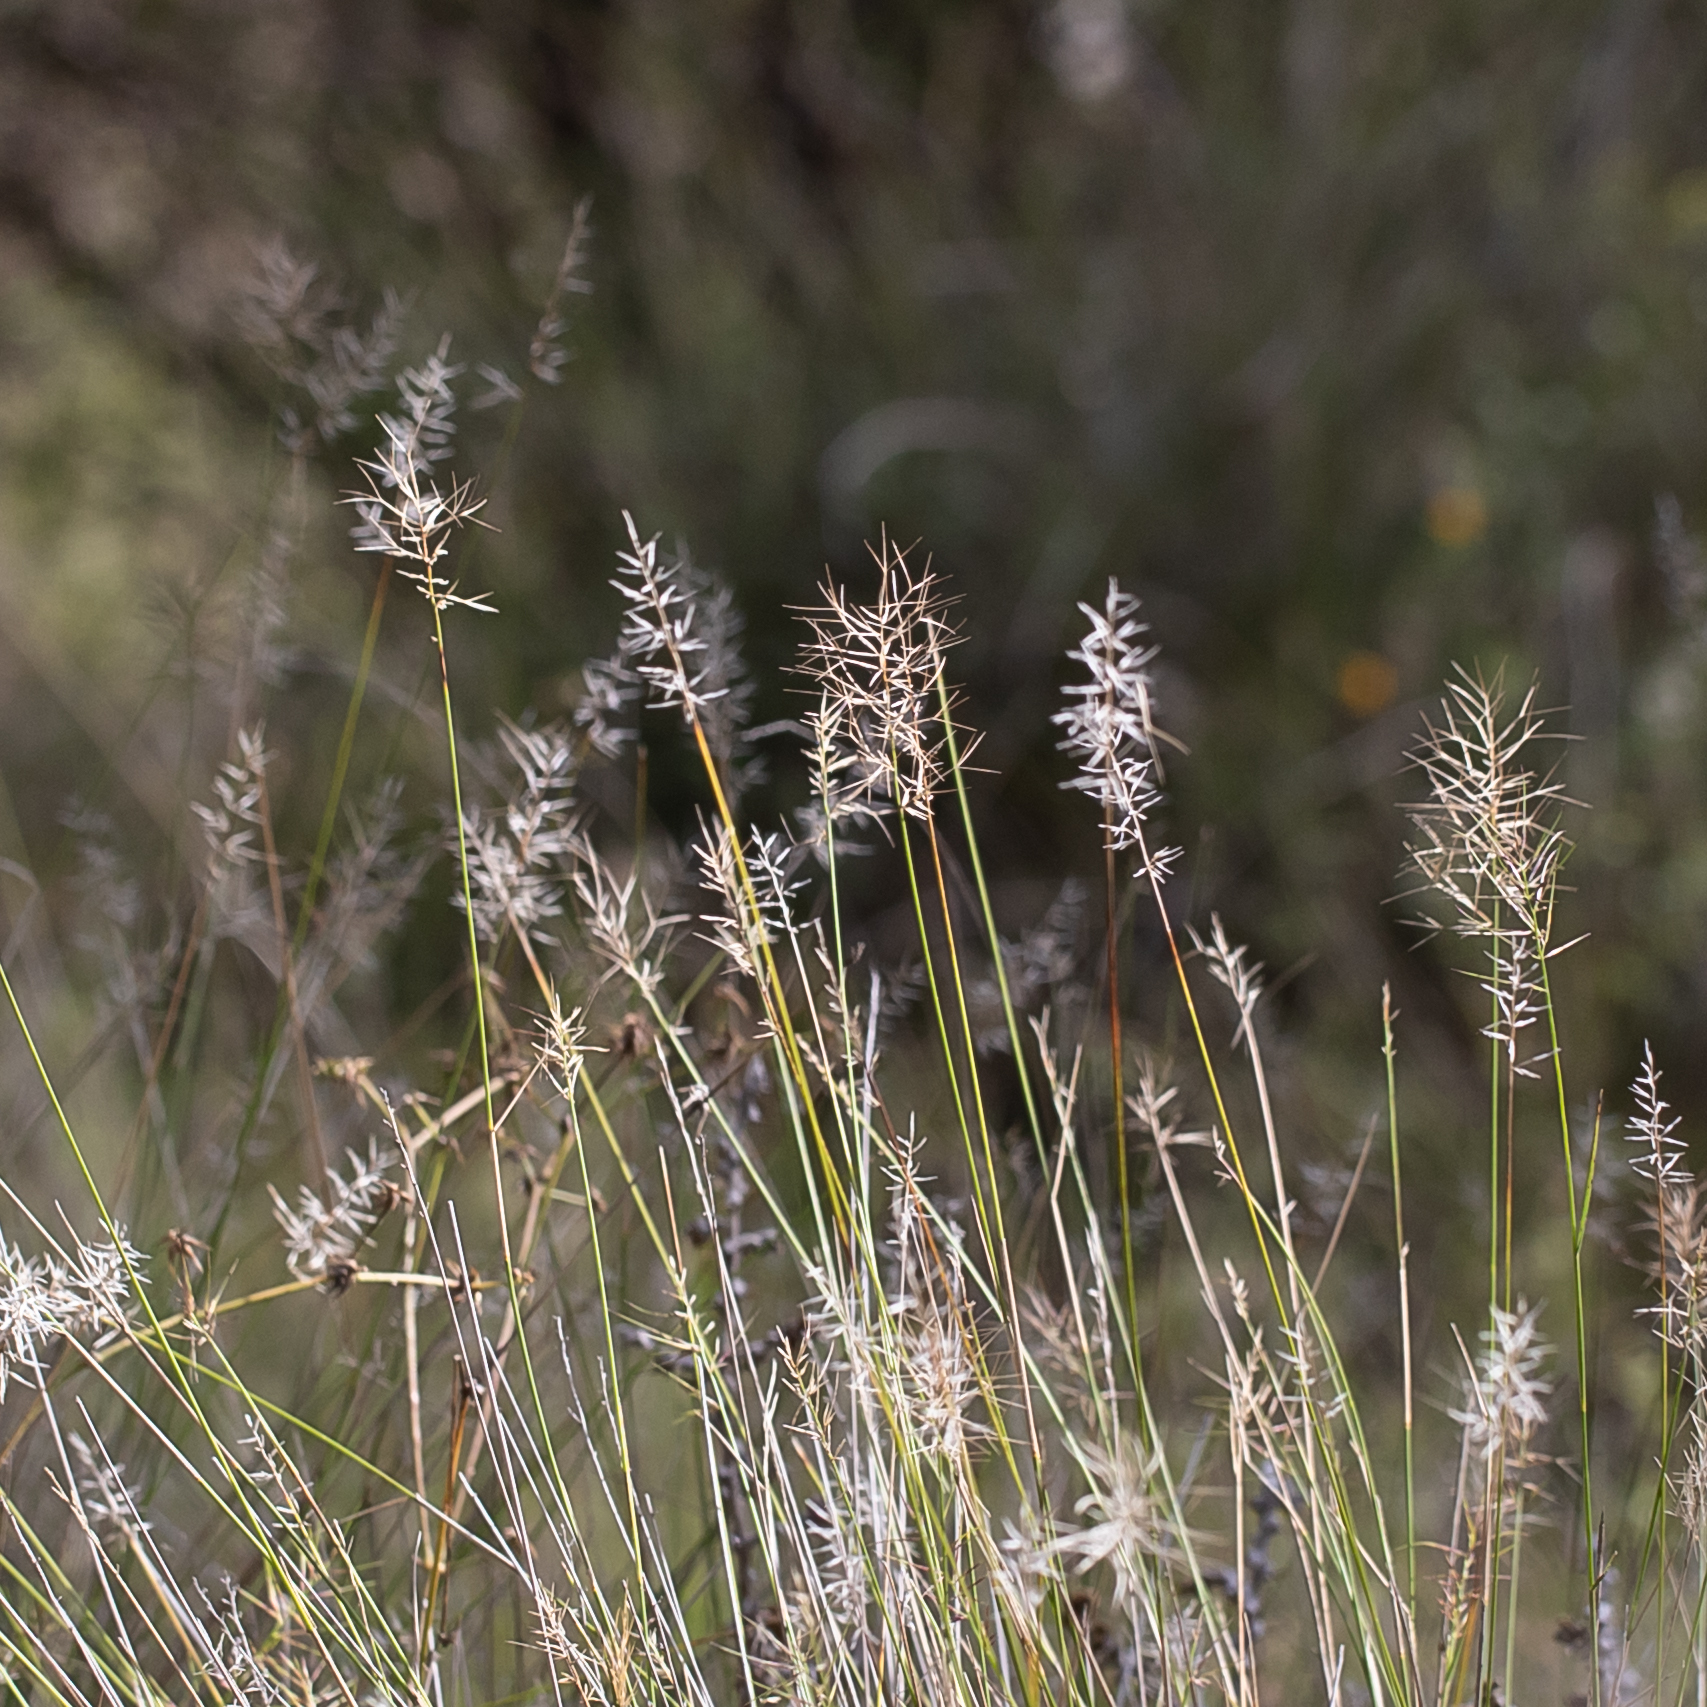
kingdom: Plantae
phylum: Tracheophyta
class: Liliopsida
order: Poales
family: Poaceae
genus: Aristida
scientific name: Aristida caput-medusae
